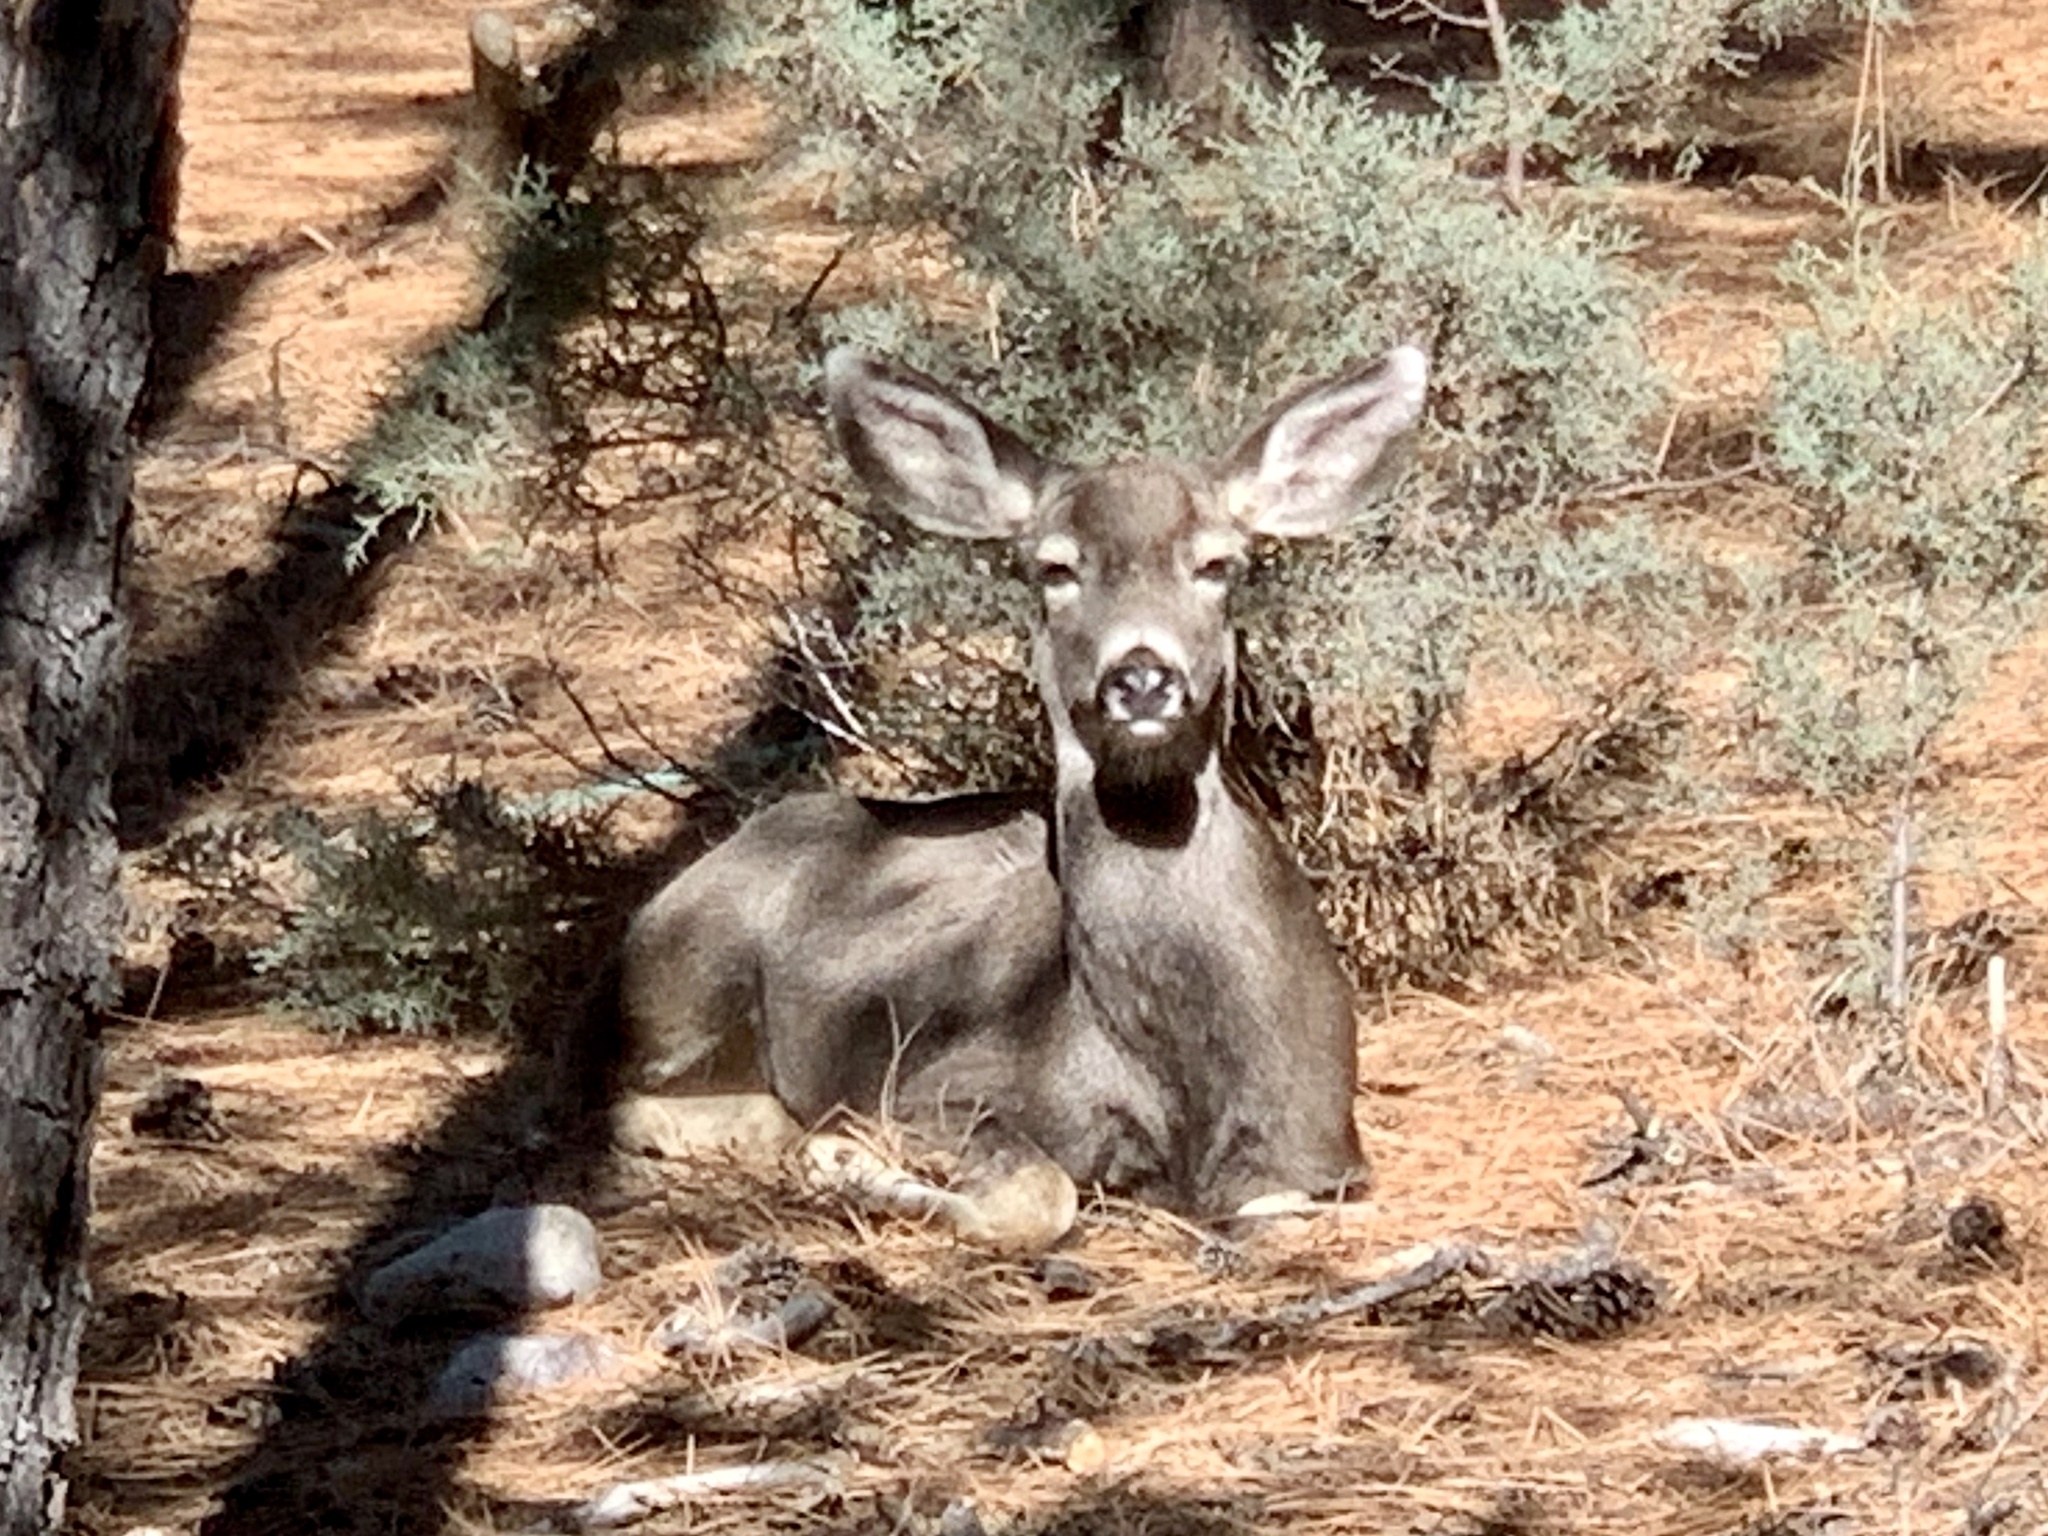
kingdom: Animalia
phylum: Chordata
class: Mammalia
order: Artiodactyla
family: Cervidae
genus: Odocoileus
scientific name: Odocoileus hemionus
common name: Mule deer
